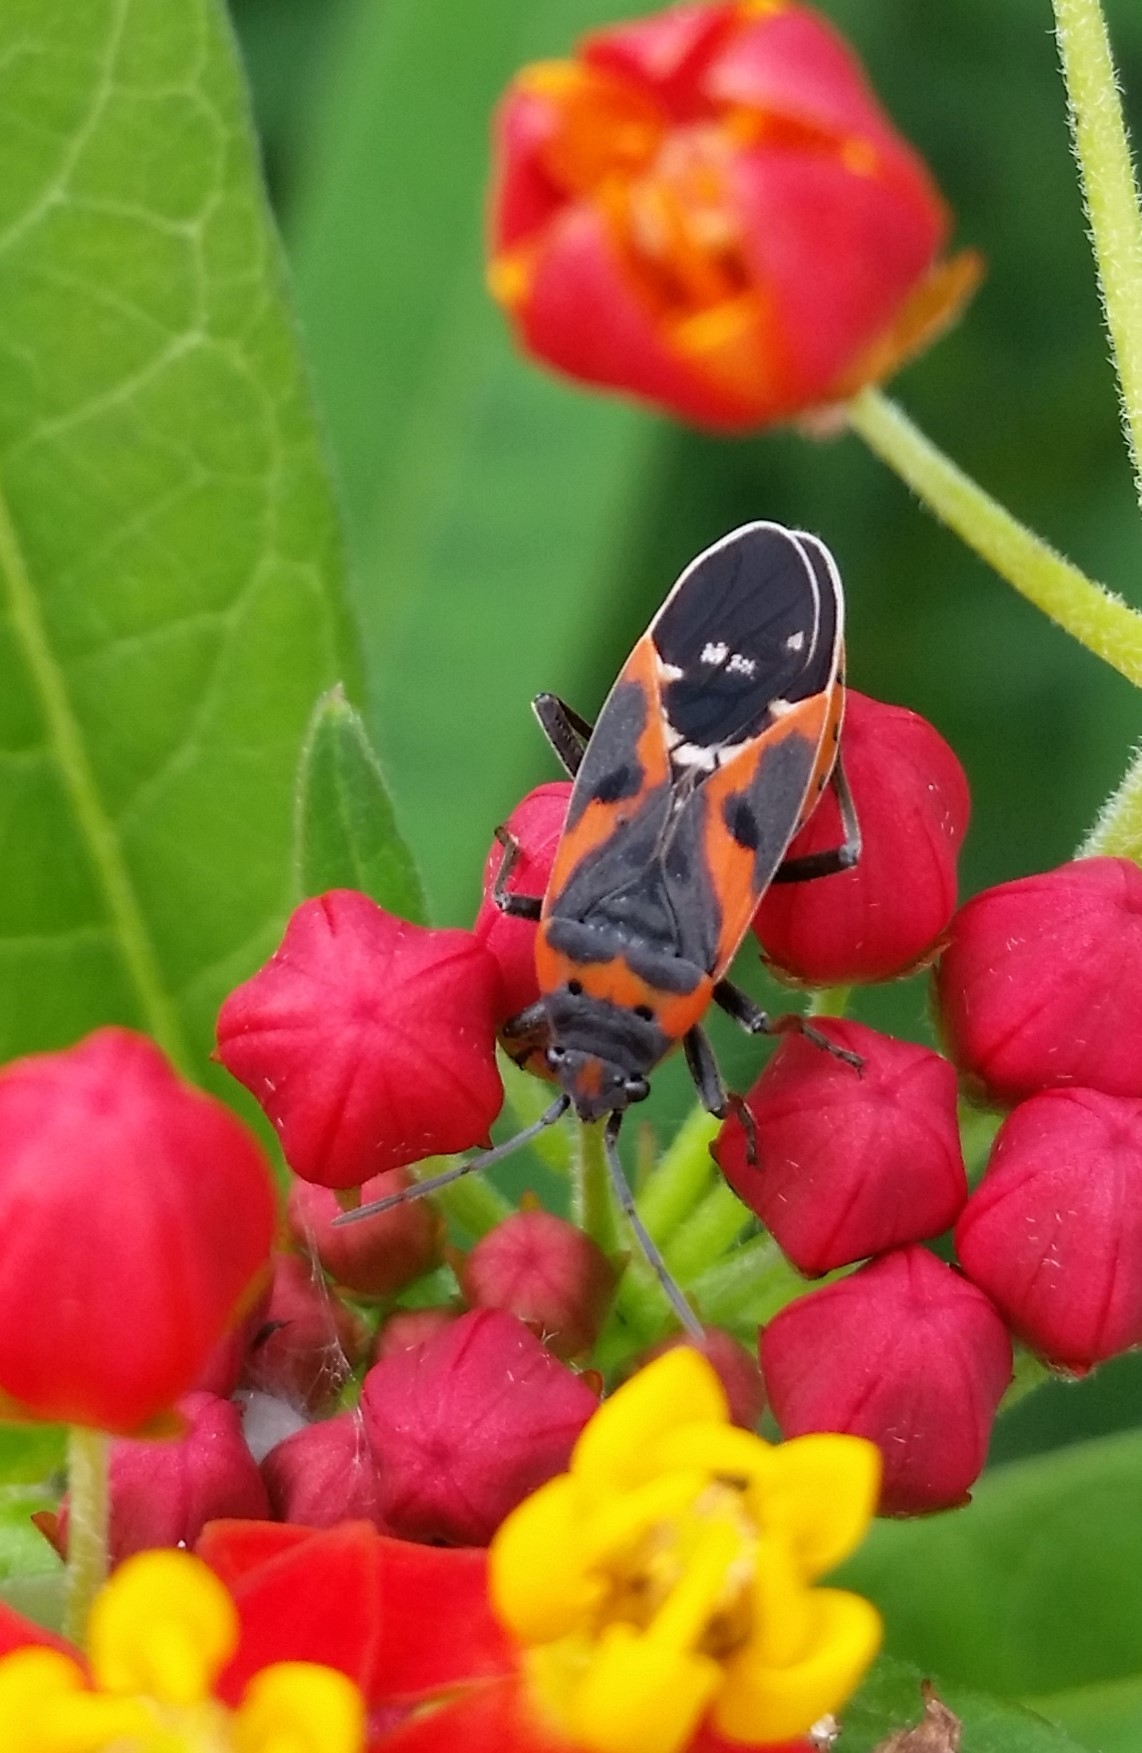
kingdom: Animalia
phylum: Arthropoda
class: Insecta
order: Hemiptera
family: Lygaeidae
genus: Lygaeus
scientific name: Lygaeus kalmii
